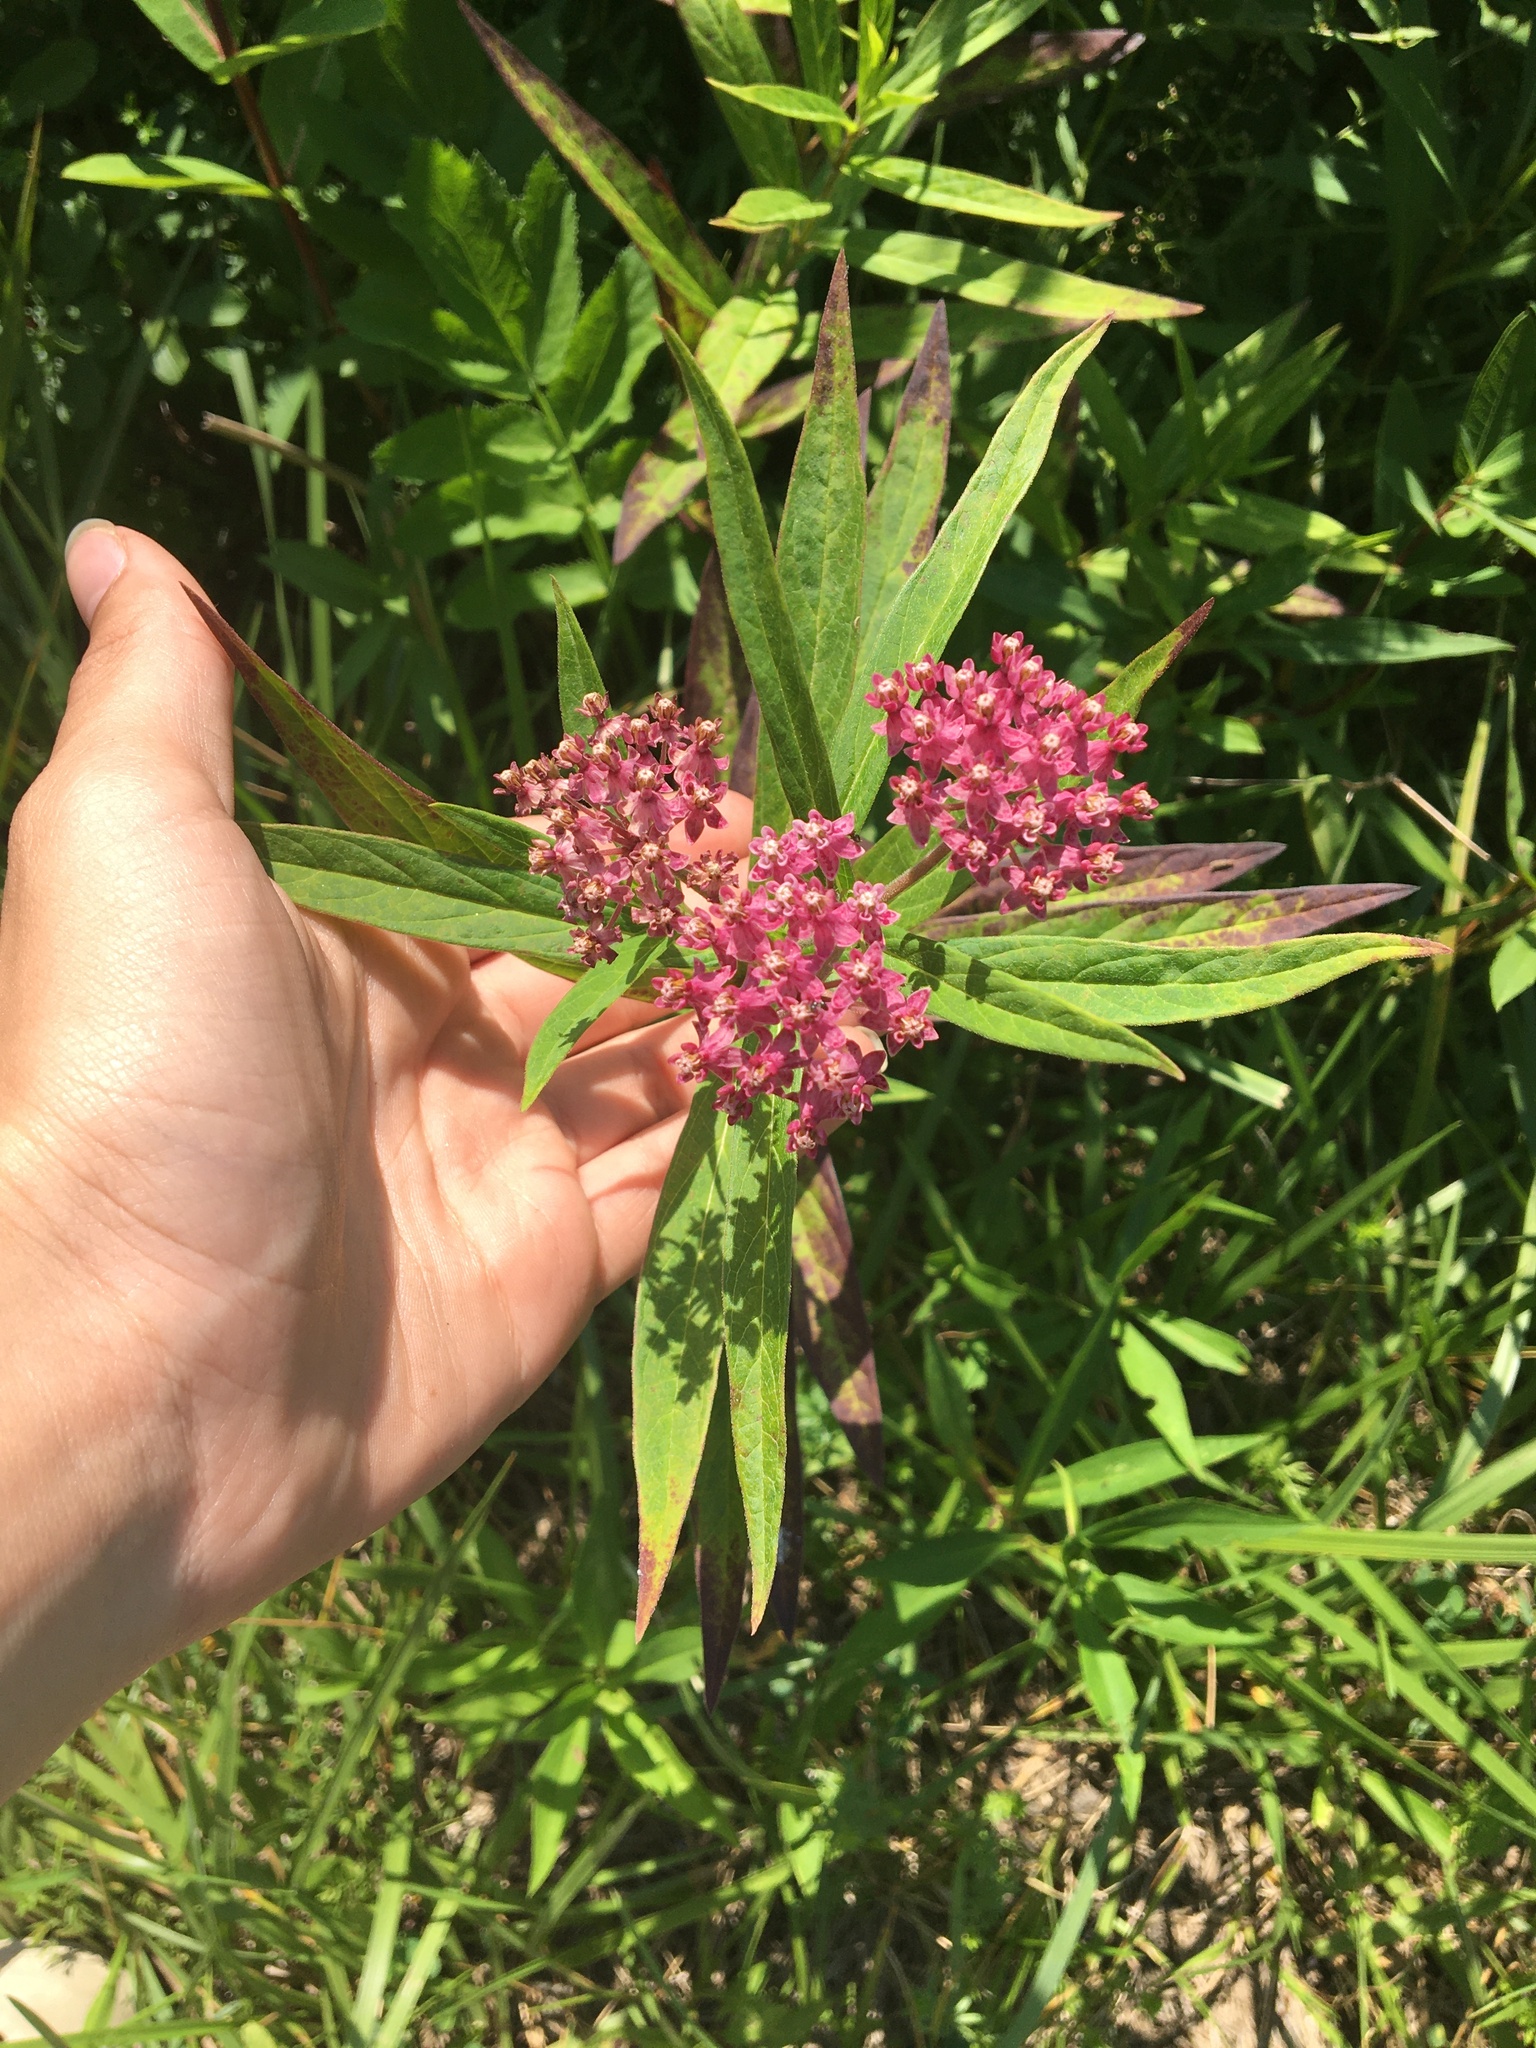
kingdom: Plantae
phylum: Tracheophyta
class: Magnoliopsida
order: Gentianales
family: Apocynaceae
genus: Asclepias
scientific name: Asclepias incarnata
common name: Swamp milkweed
